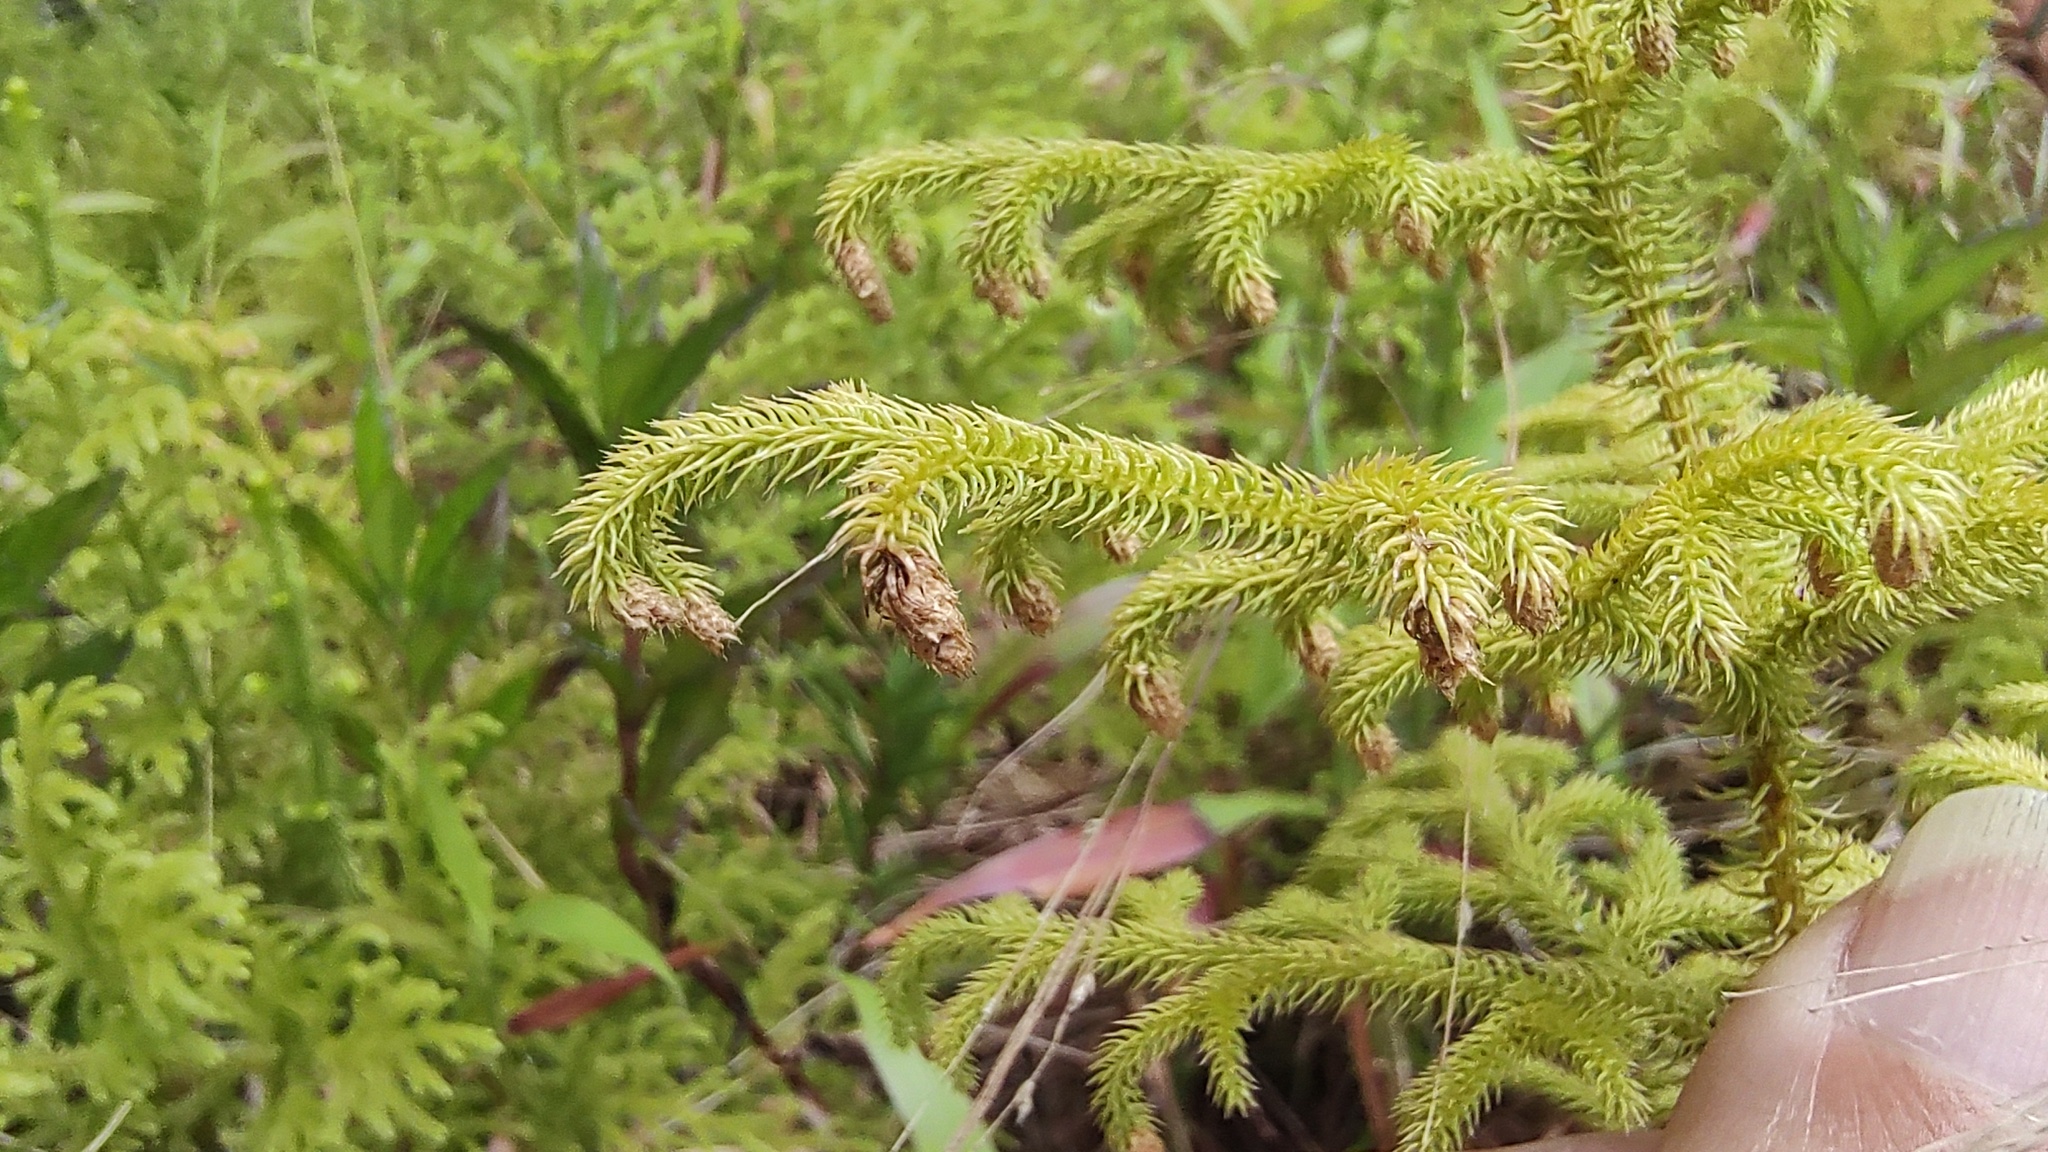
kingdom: Plantae
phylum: Tracheophyta
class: Lycopodiopsida
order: Lycopodiales
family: Lycopodiaceae
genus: Palhinhaea
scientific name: Palhinhaea cernua
